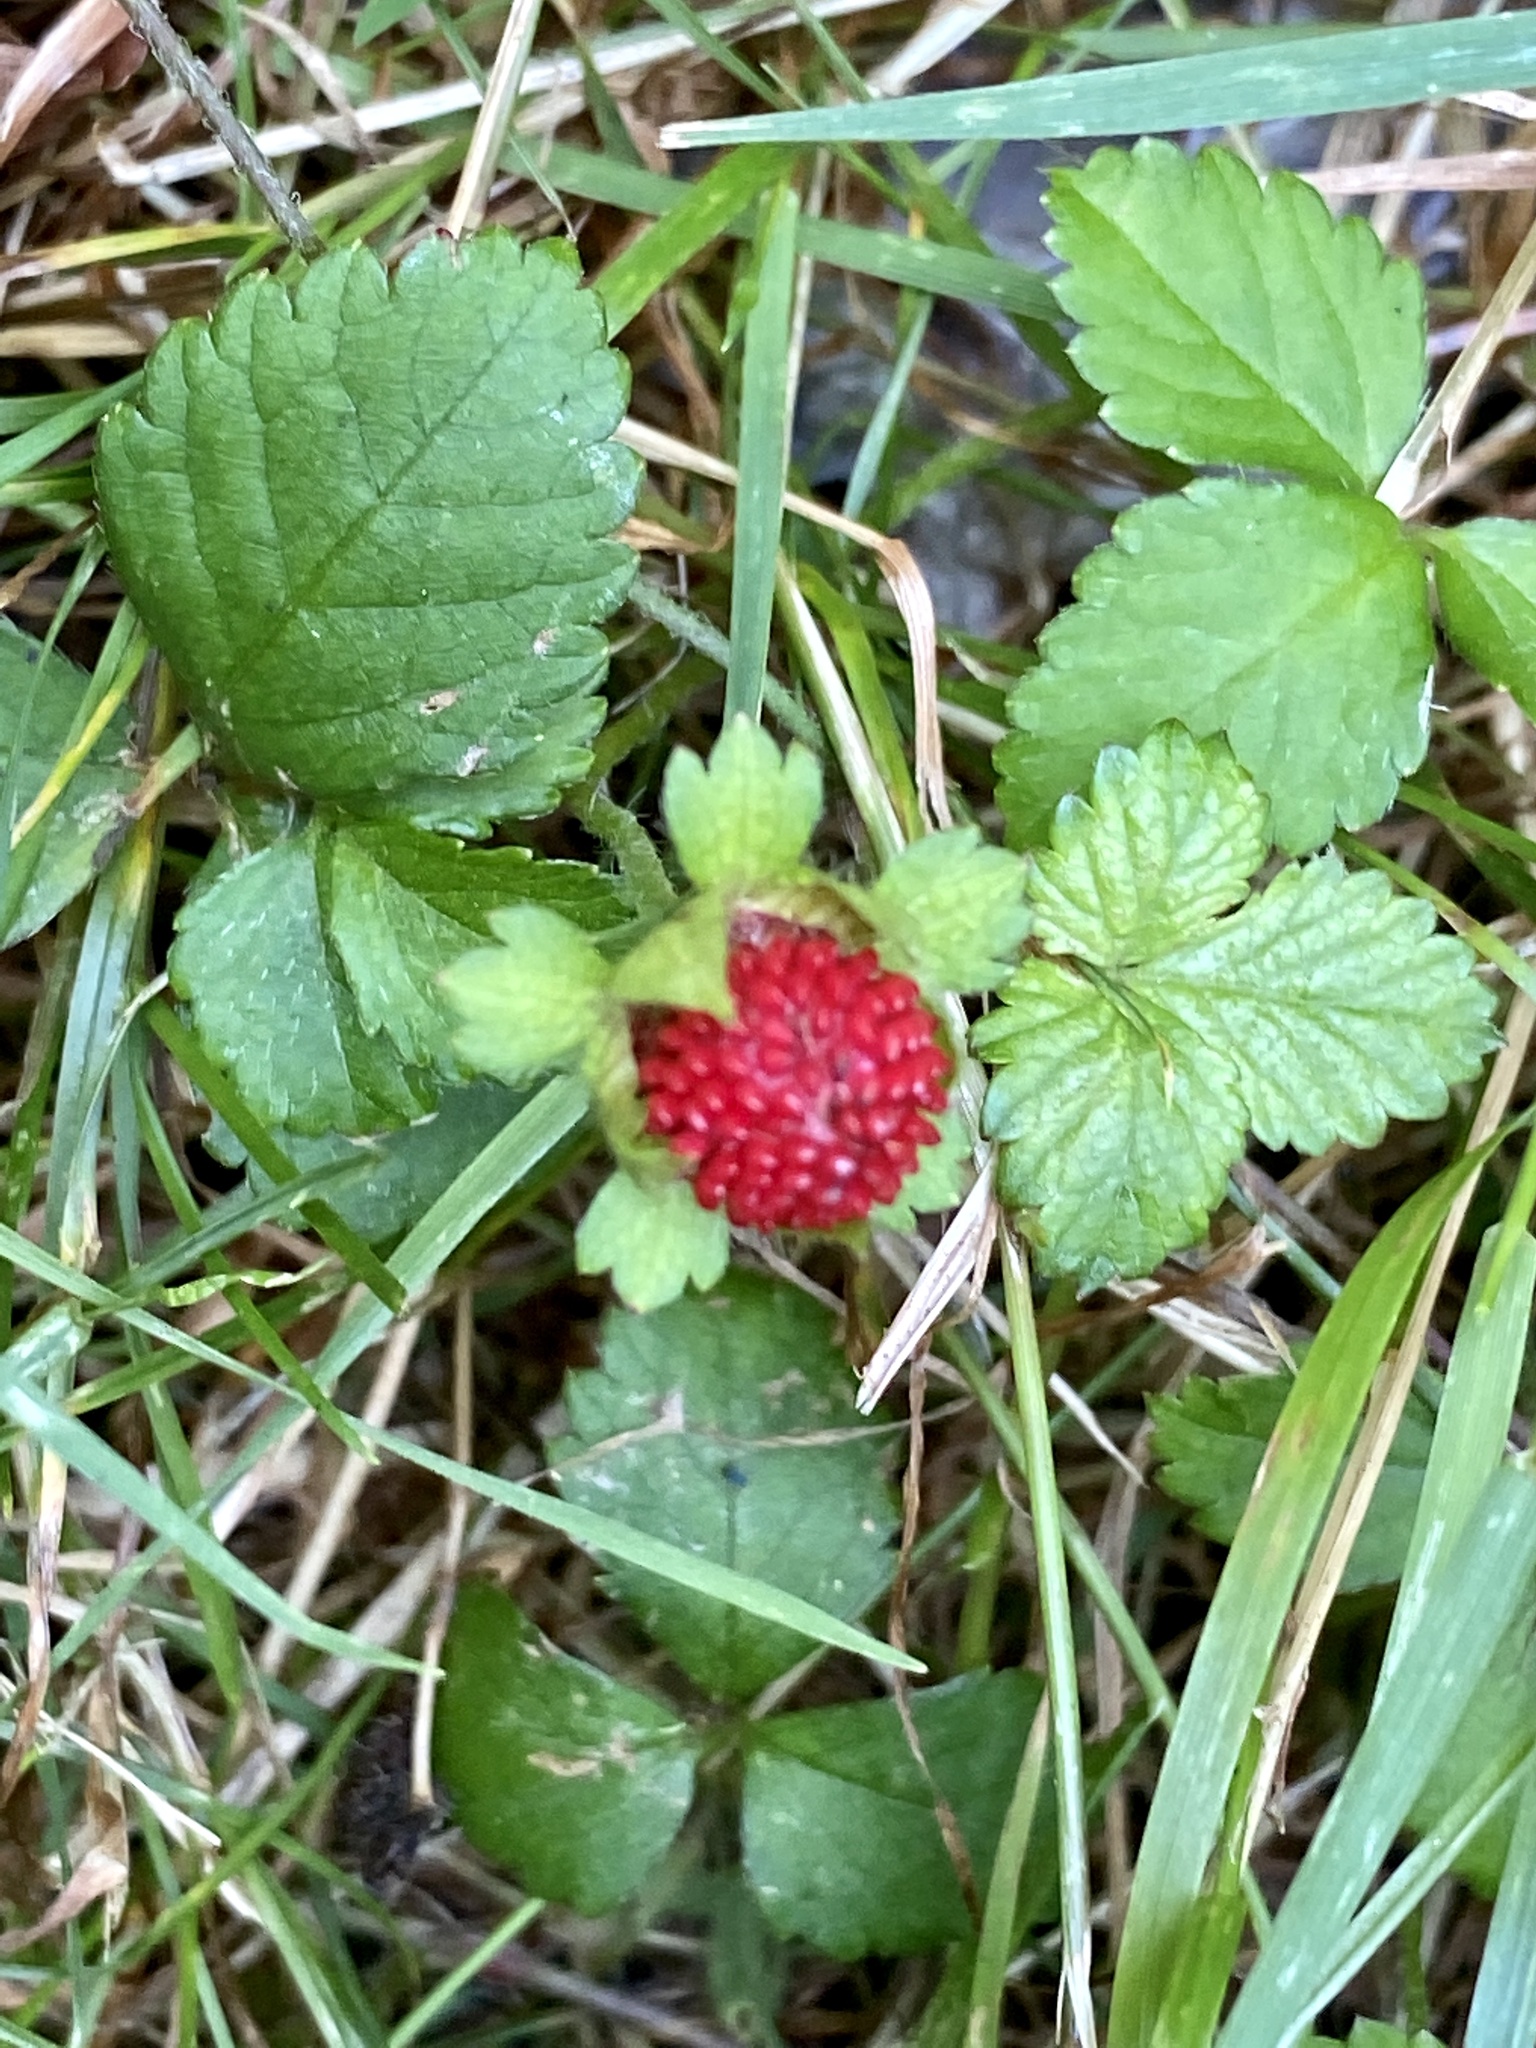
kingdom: Plantae
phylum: Tracheophyta
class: Magnoliopsida
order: Rosales
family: Rosaceae
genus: Potentilla
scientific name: Potentilla indica
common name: Yellow-flowered strawberry
